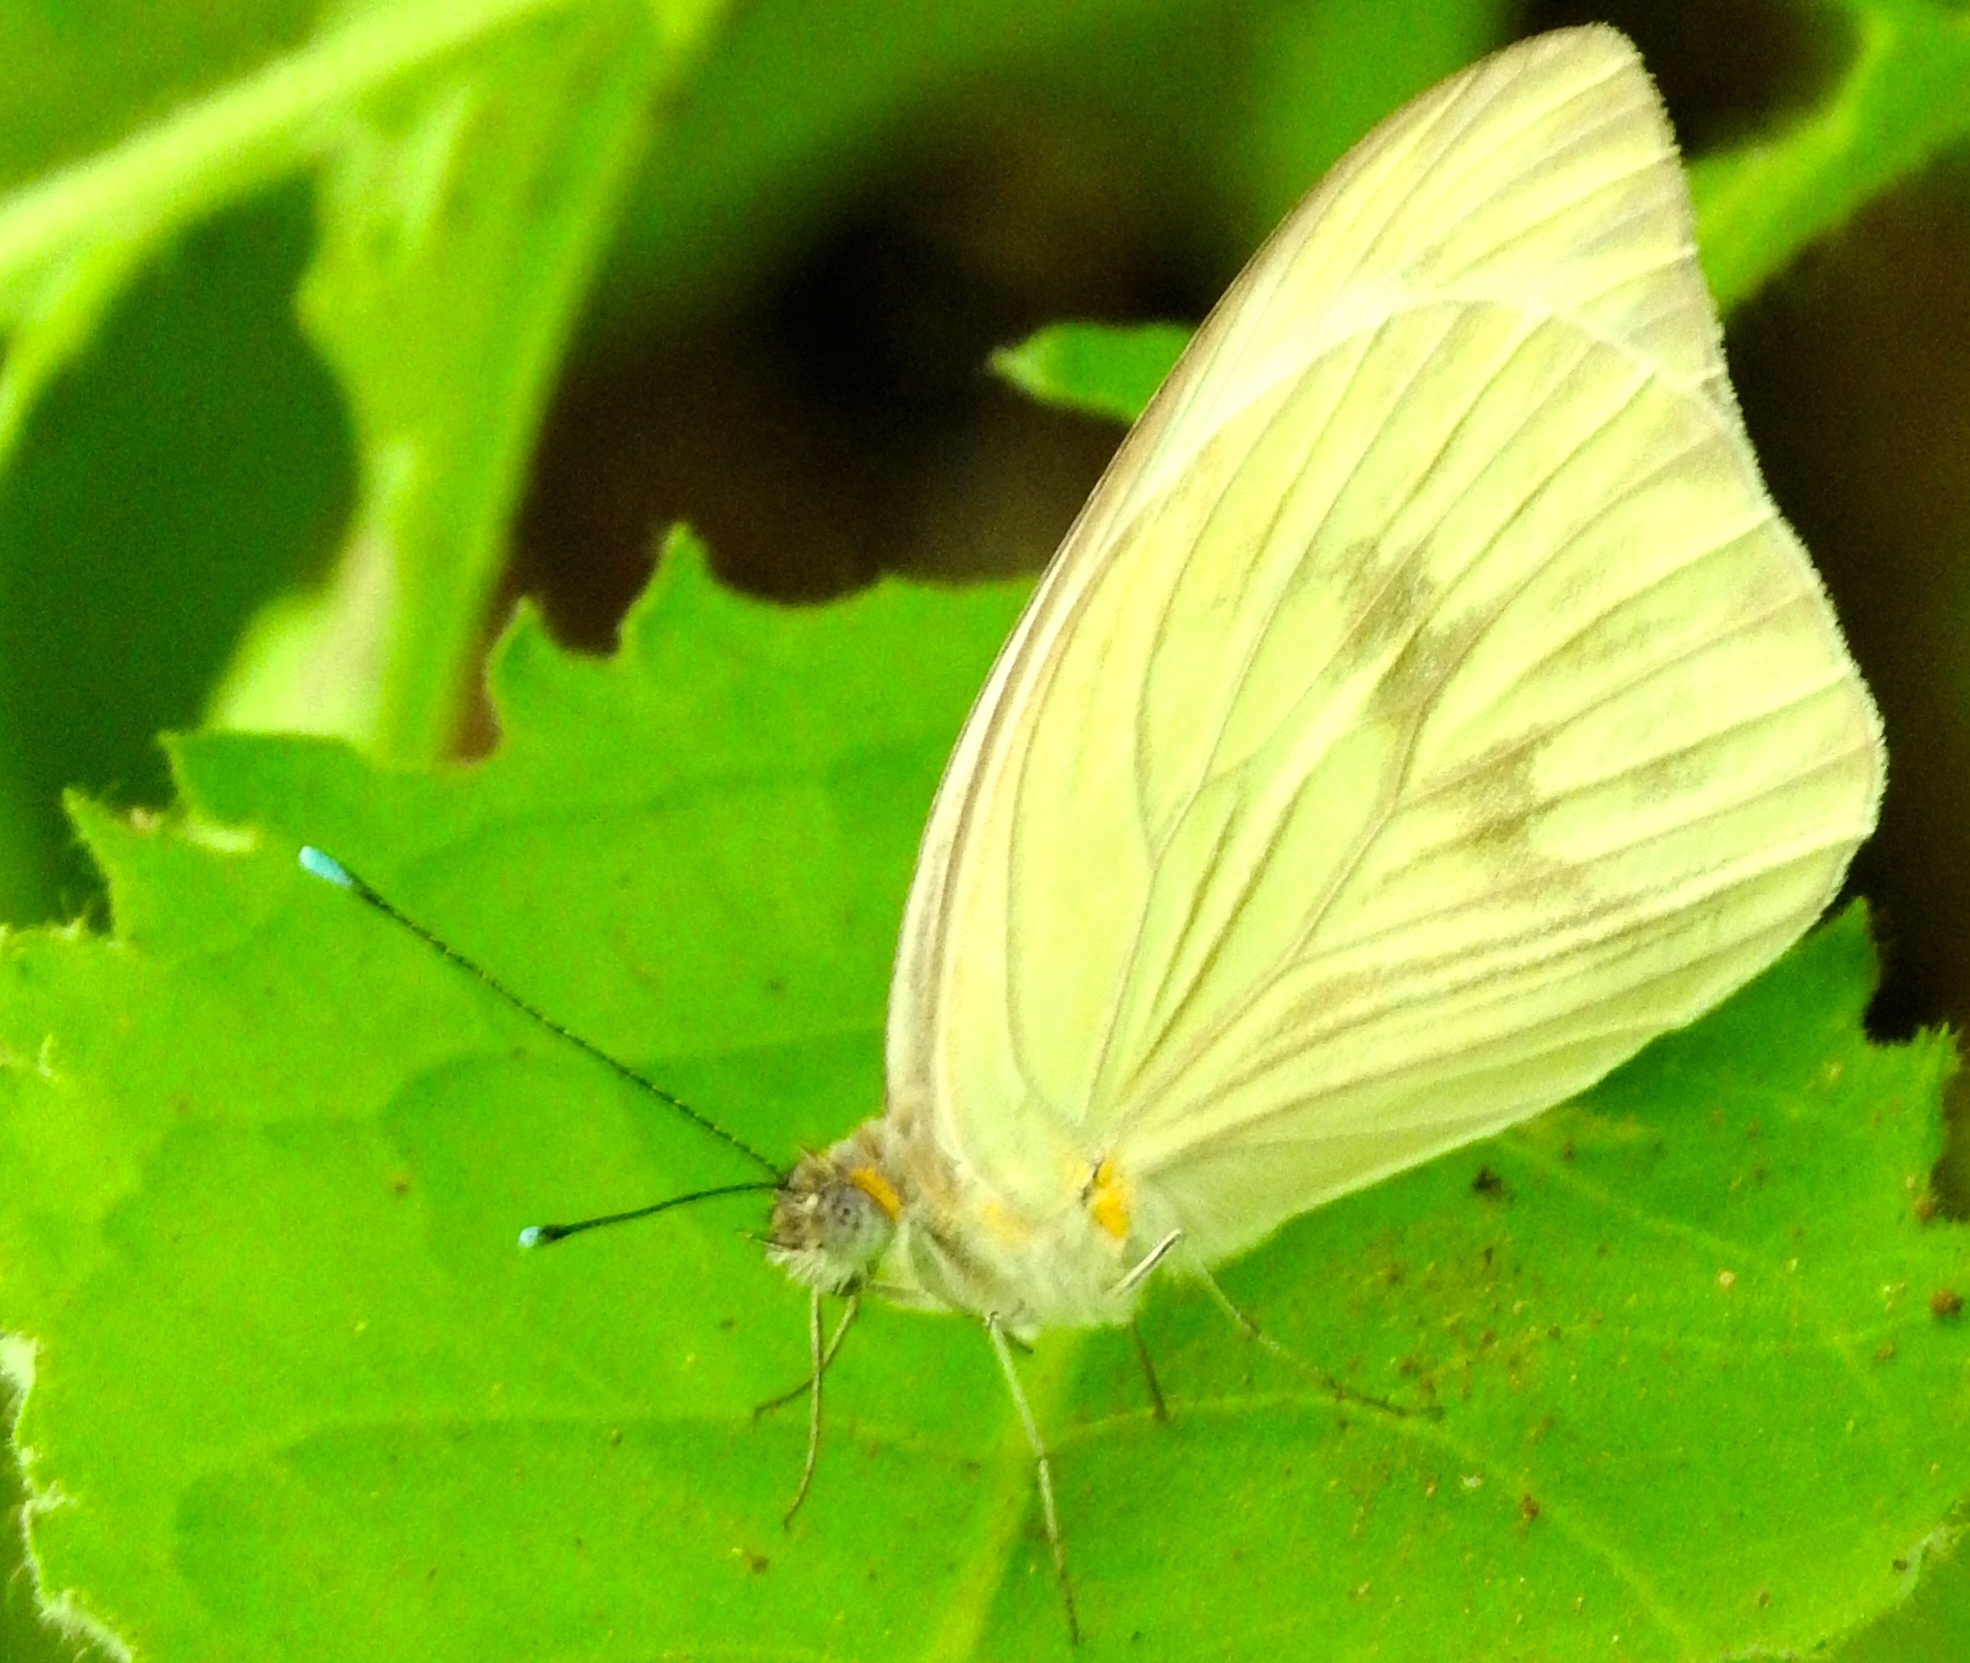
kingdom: Animalia
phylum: Arthropoda
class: Insecta
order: Lepidoptera
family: Pieridae
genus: Ascia
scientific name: Ascia monuste
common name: Great southern white
